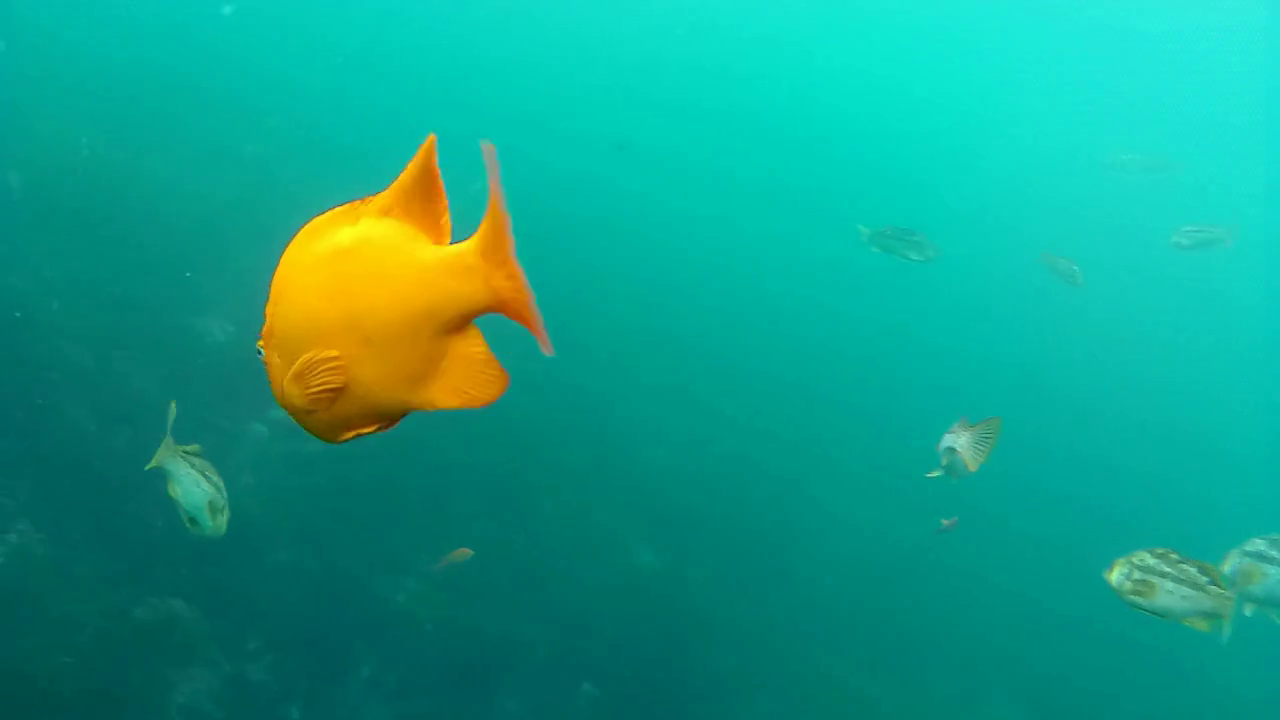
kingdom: Animalia
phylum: Chordata
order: Perciformes
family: Pomacentridae
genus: Hypsypops
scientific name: Hypsypops rubicundus
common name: Garibaldi
